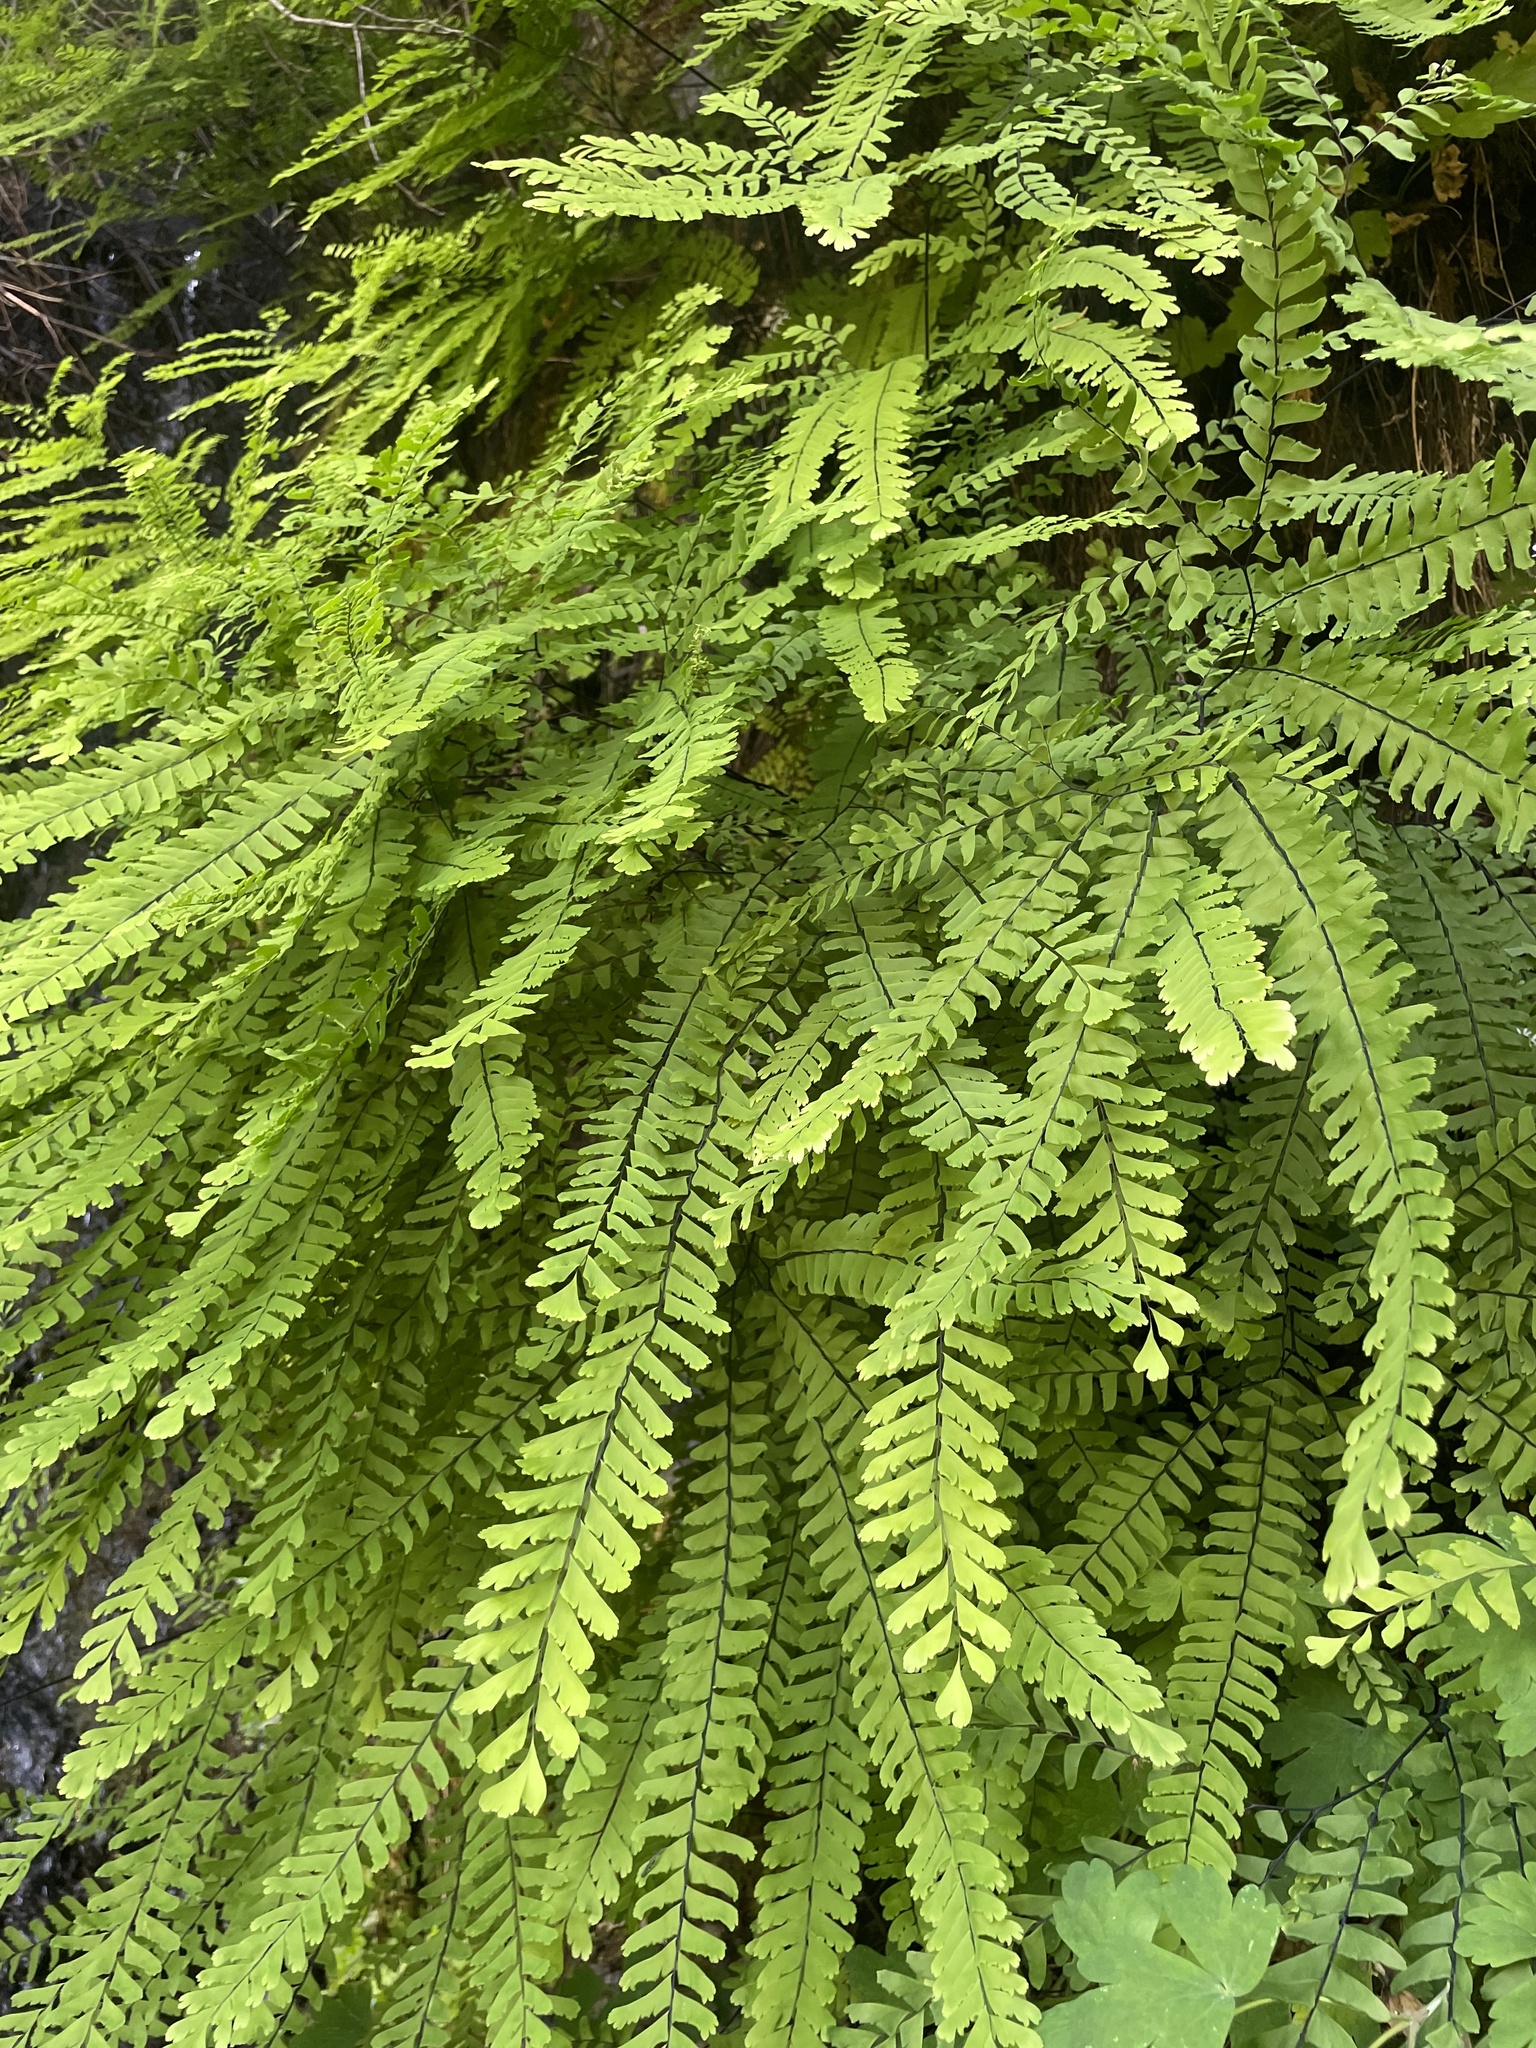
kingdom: Plantae
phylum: Tracheophyta
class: Polypodiopsida
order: Polypodiales
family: Pteridaceae
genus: Adiantum
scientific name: Adiantum aleuticum
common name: Aleutian maidenhair fern
